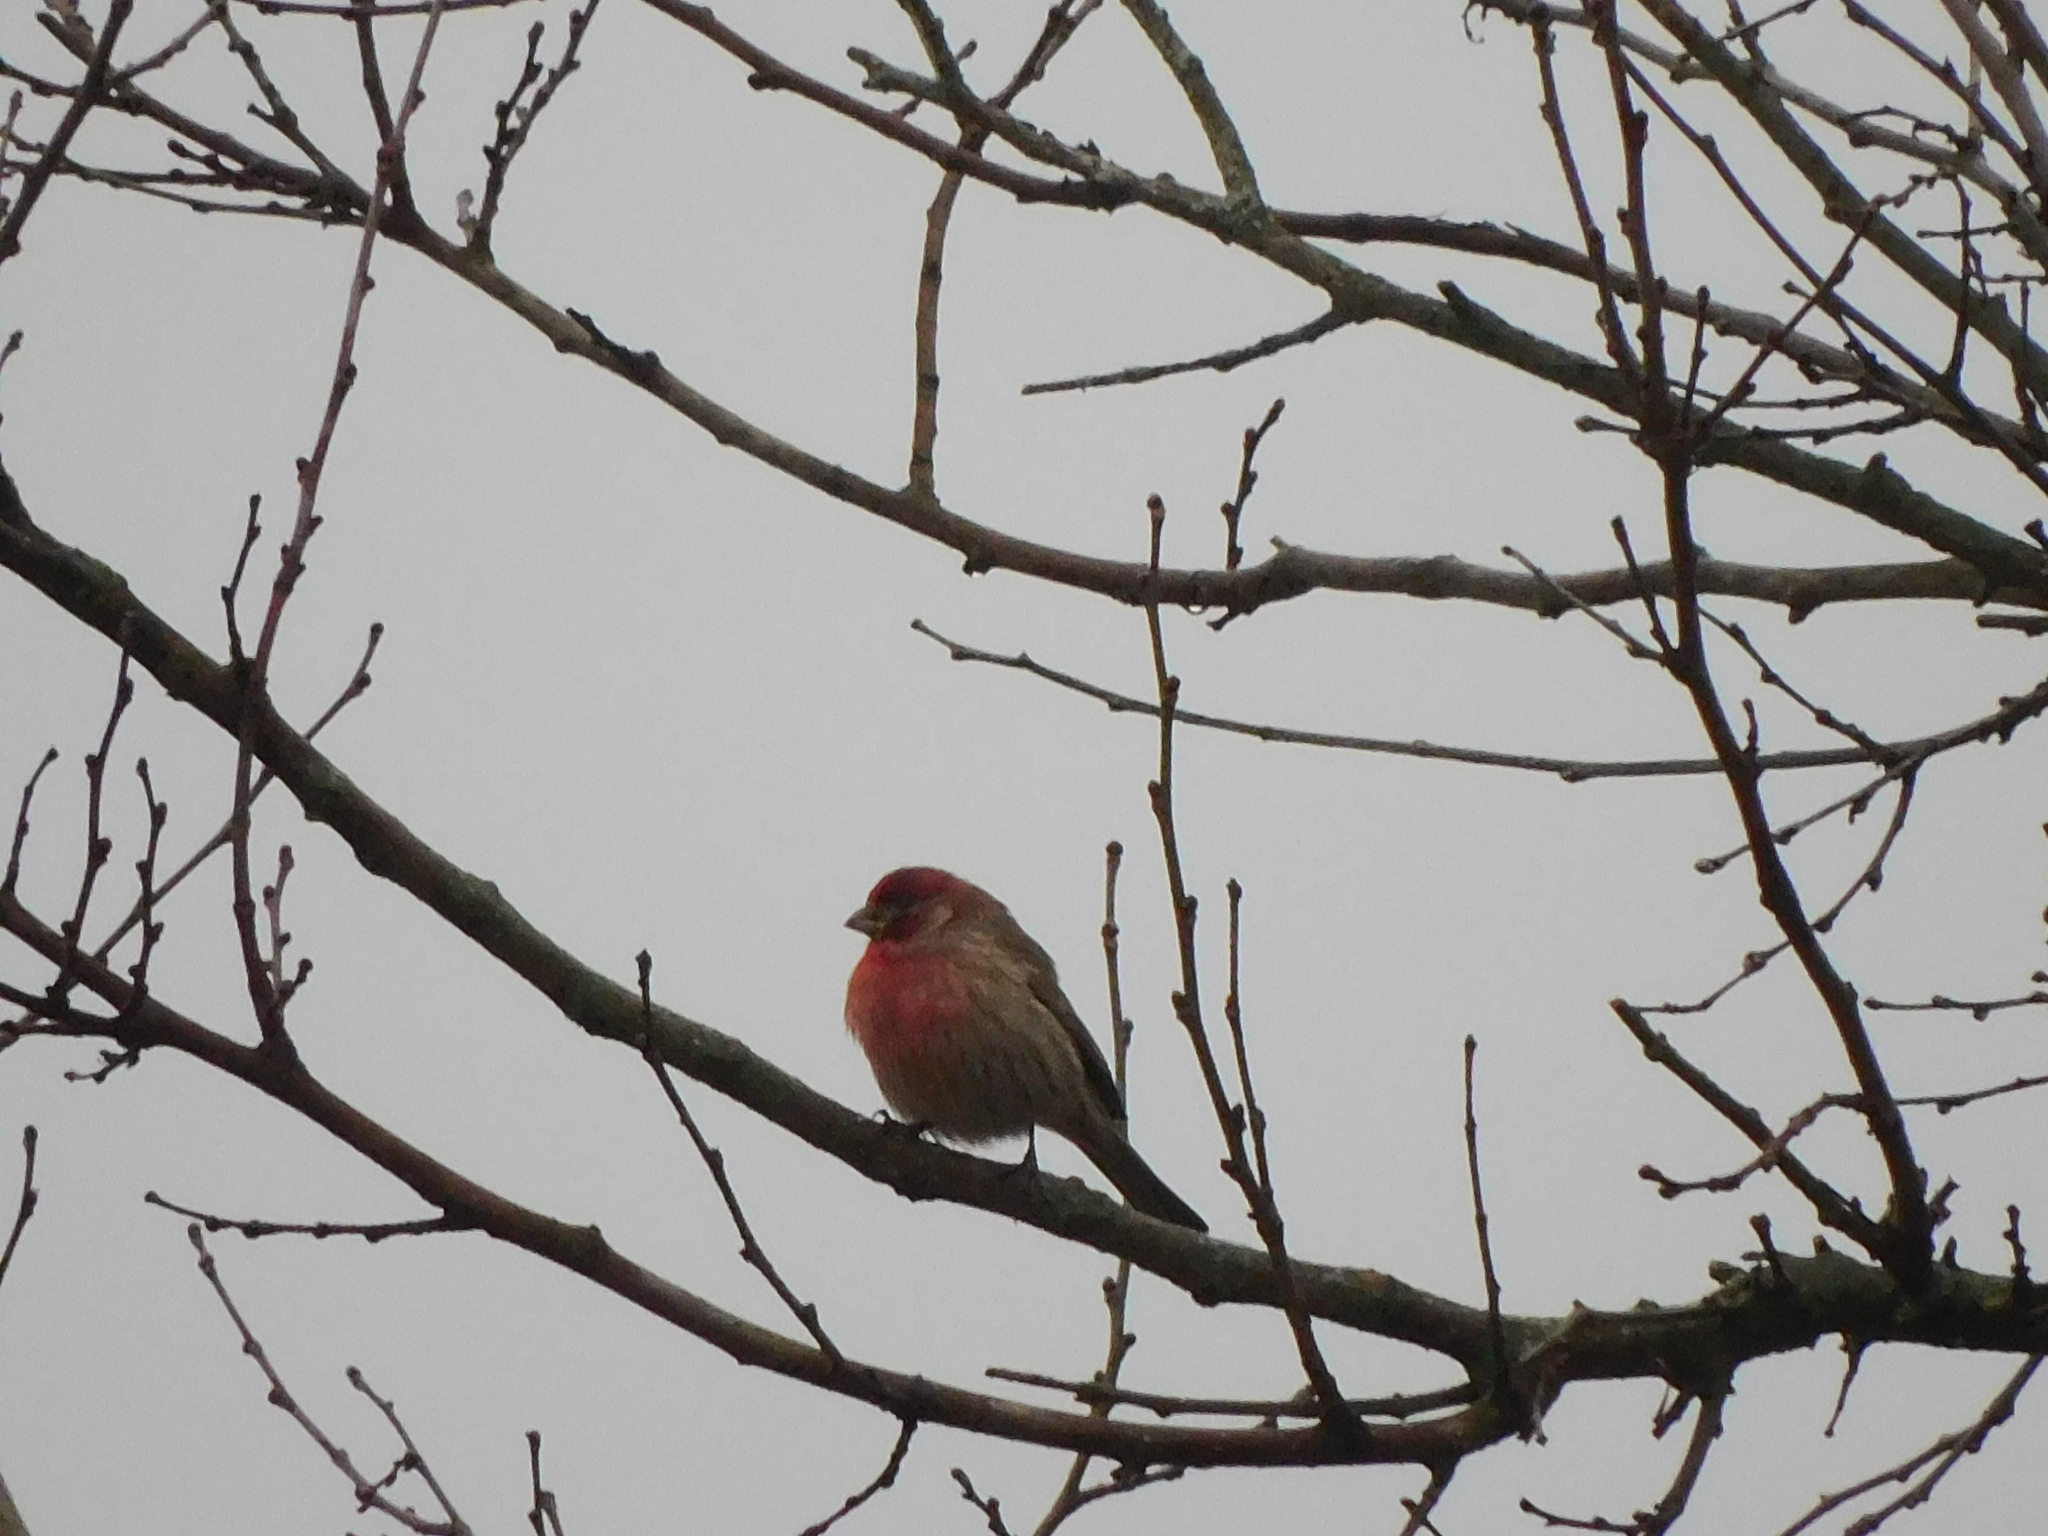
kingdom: Animalia
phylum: Chordata
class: Aves
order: Passeriformes
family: Fringillidae
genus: Haemorhous
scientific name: Haemorhous mexicanus
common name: House finch
